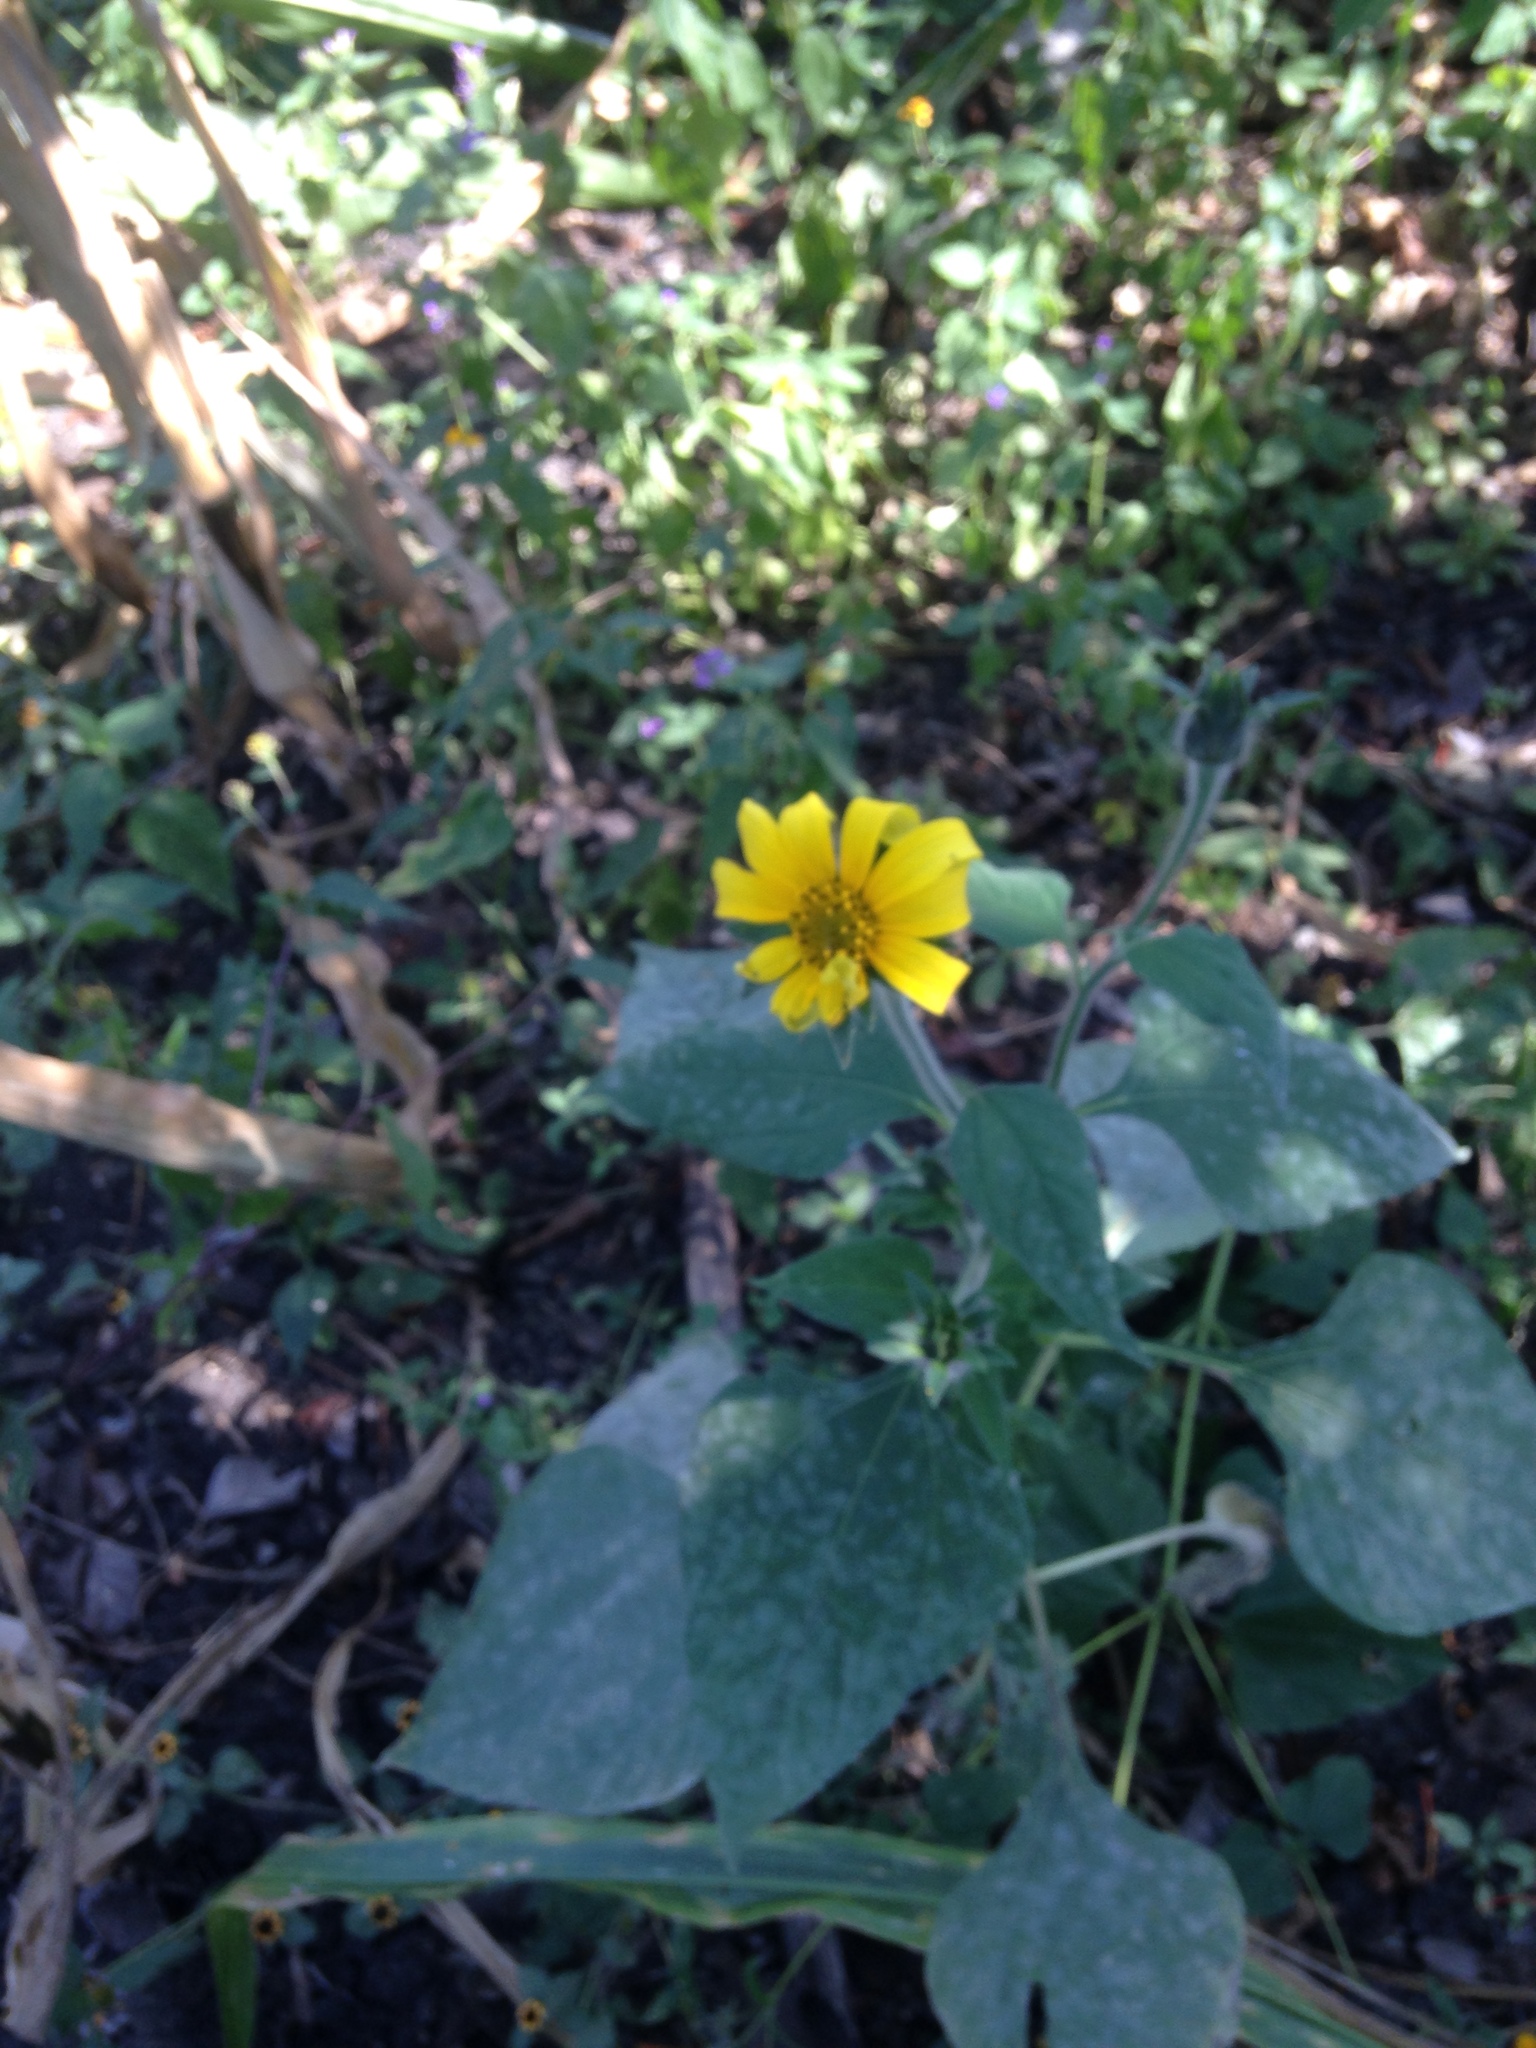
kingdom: Plantae
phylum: Tracheophyta
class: Magnoliopsida
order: Asterales
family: Asteraceae
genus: Tithonia
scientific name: Tithonia tubaeformis
